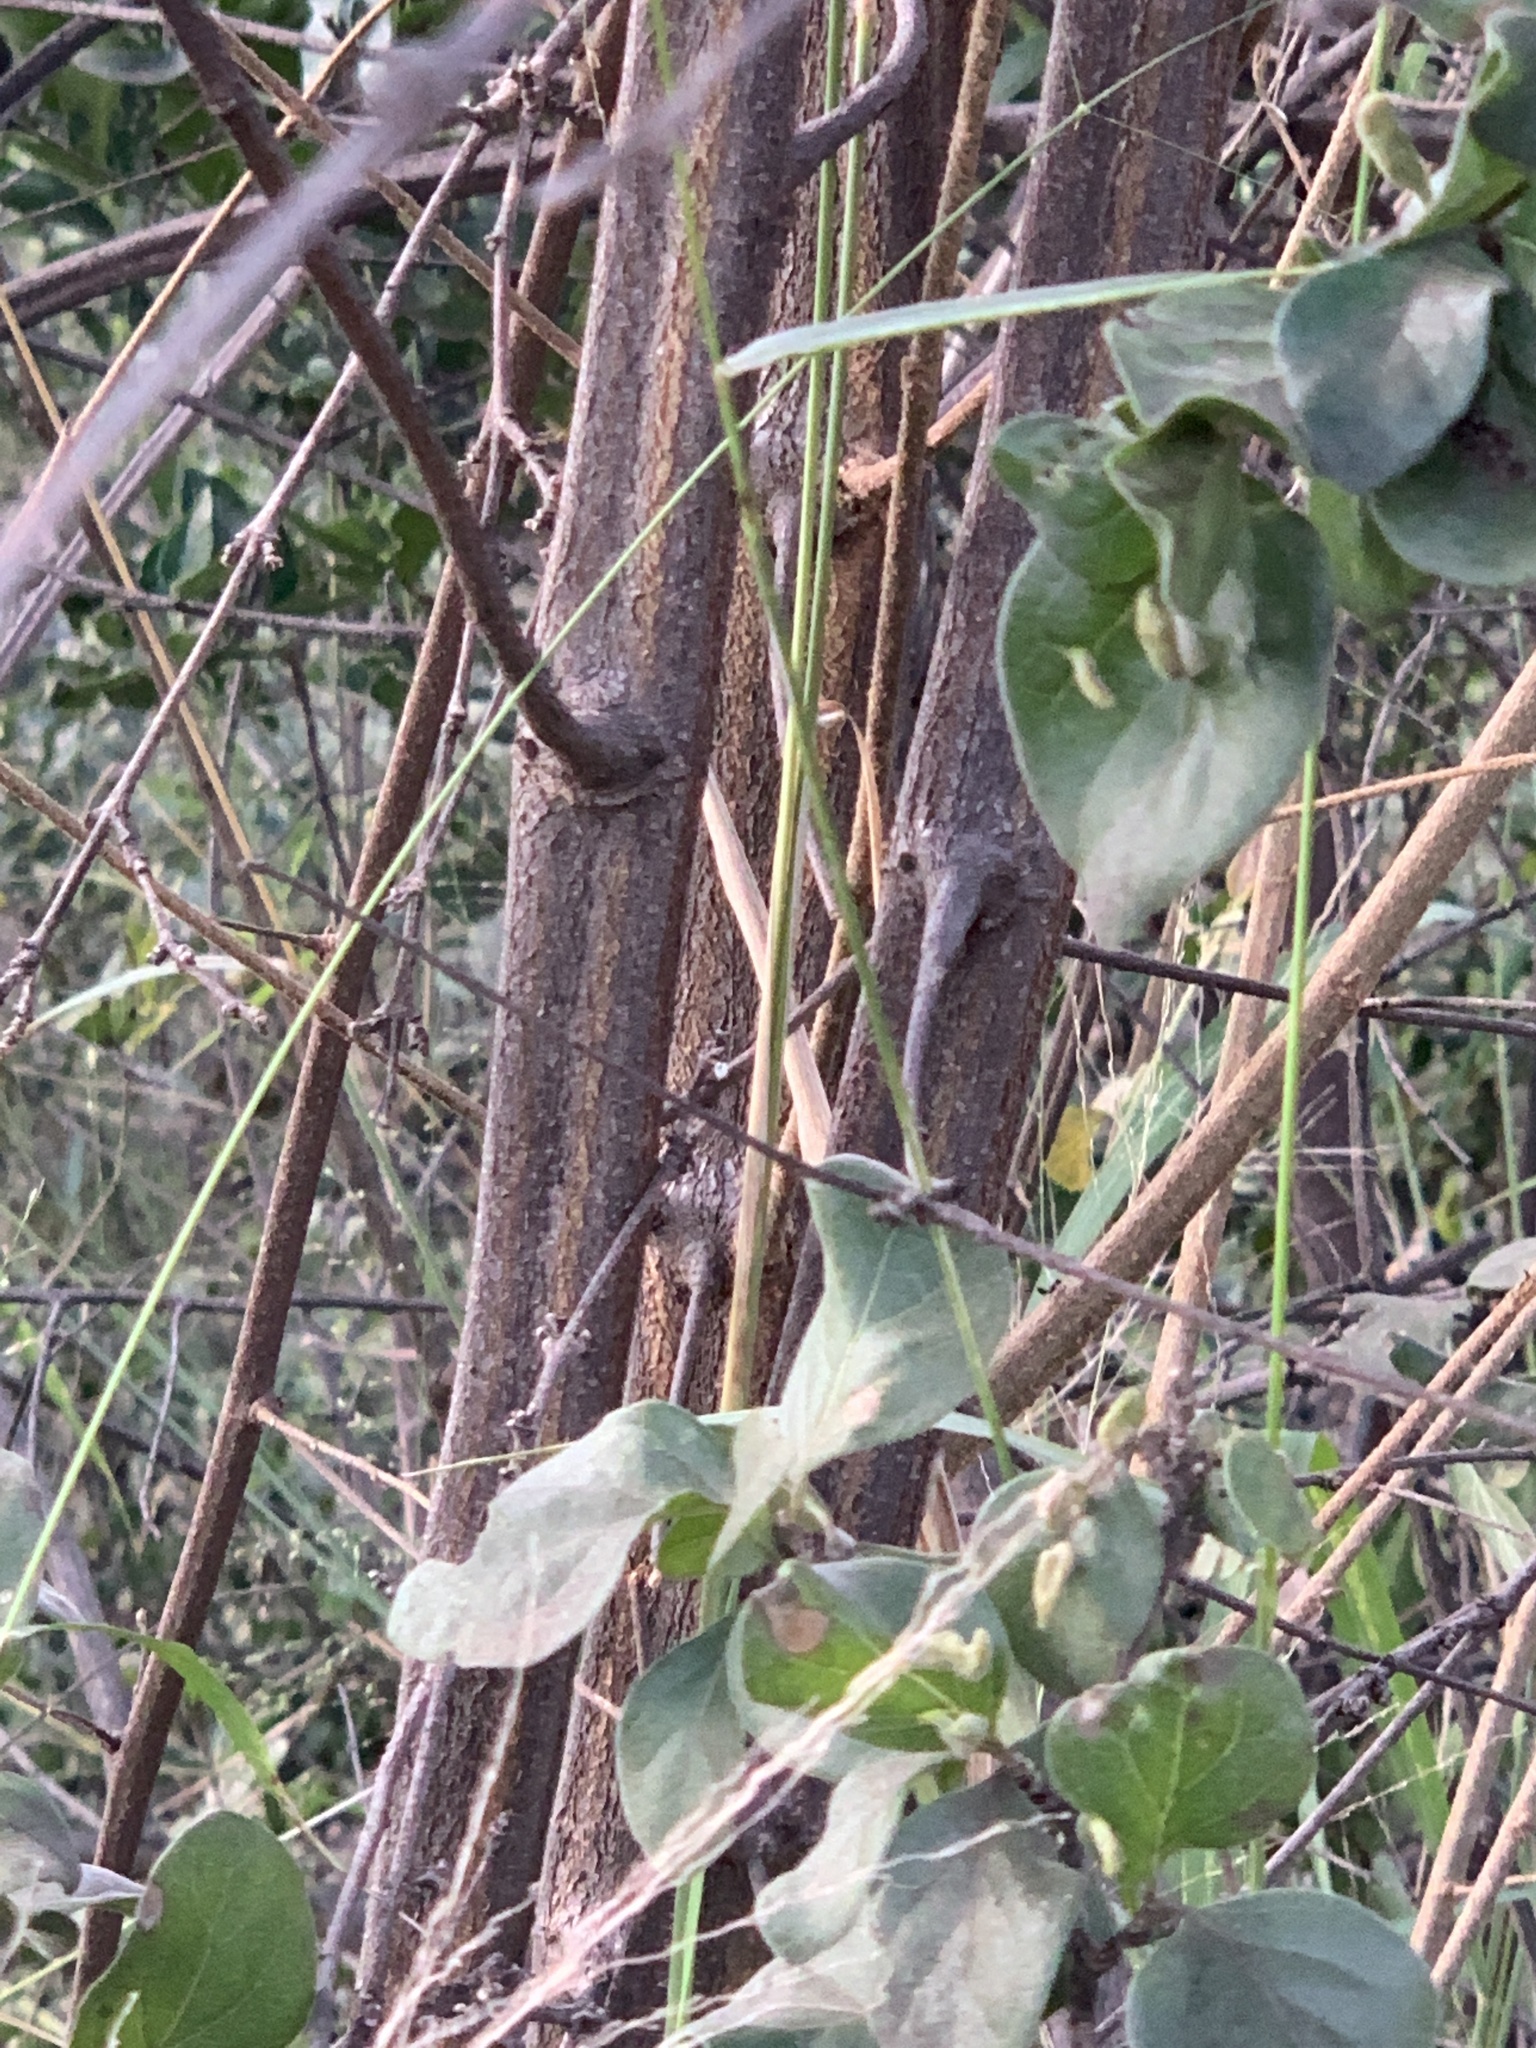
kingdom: Plantae
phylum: Tracheophyta
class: Magnoliopsida
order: Malvales
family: Malvaceae
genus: Grewia
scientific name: Grewia flavescens
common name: Sandpaper raisin
